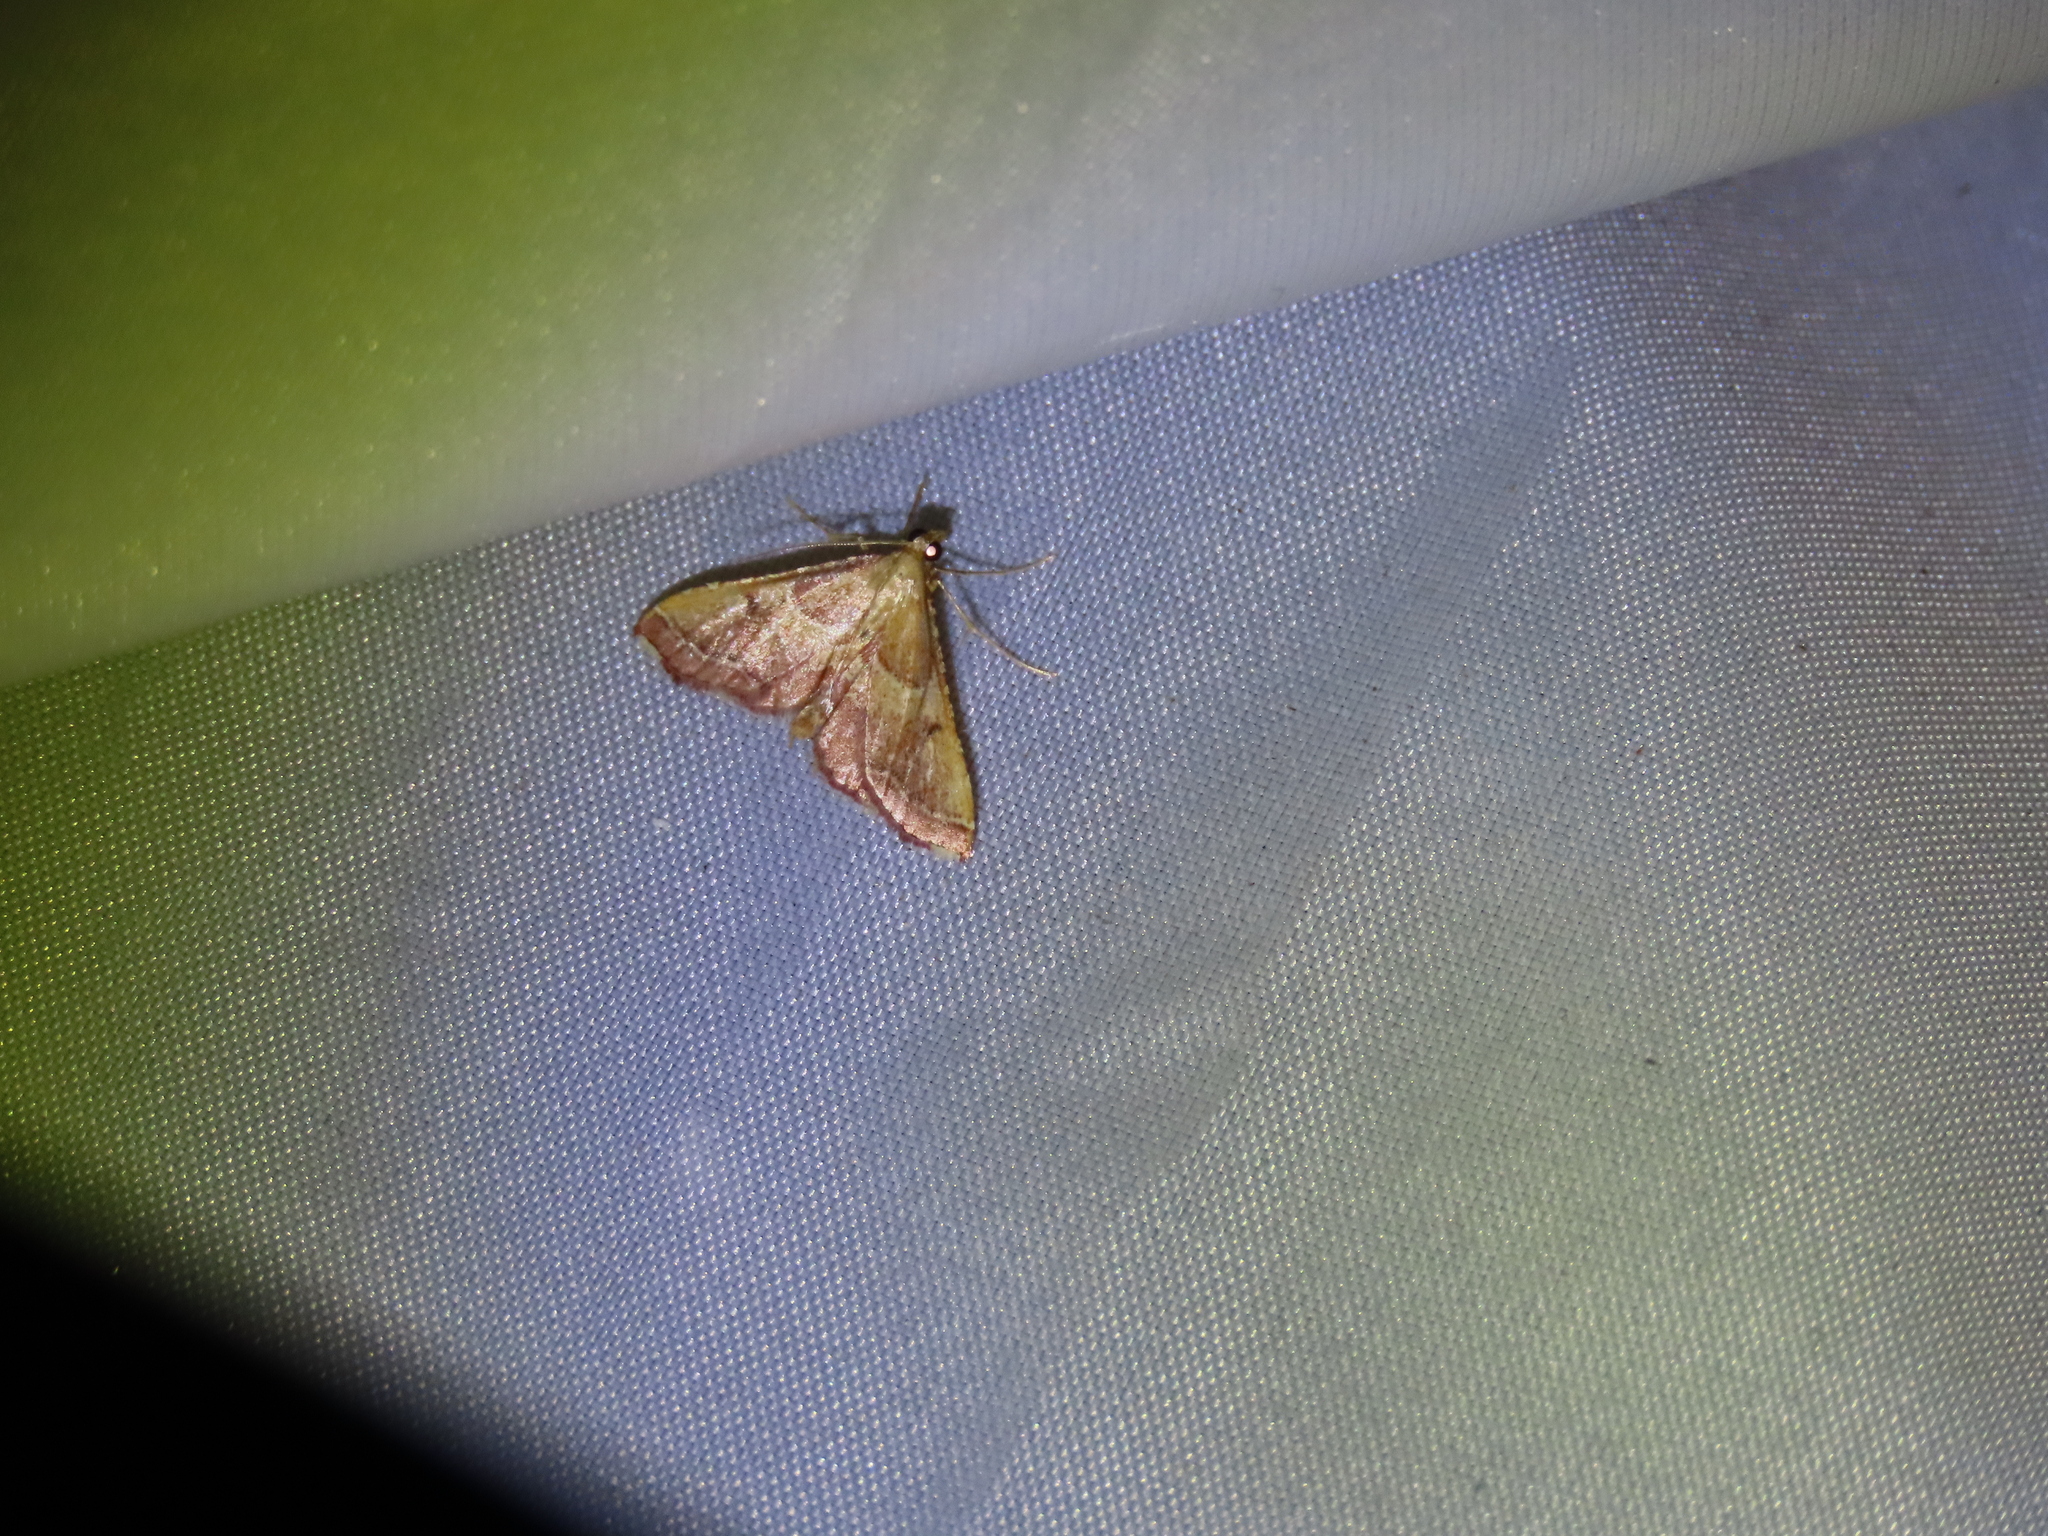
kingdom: Animalia
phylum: Arthropoda
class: Insecta
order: Lepidoptera
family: Pyralidae
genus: Endotricha
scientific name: Endotricha flammealis
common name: Rosy tabby
